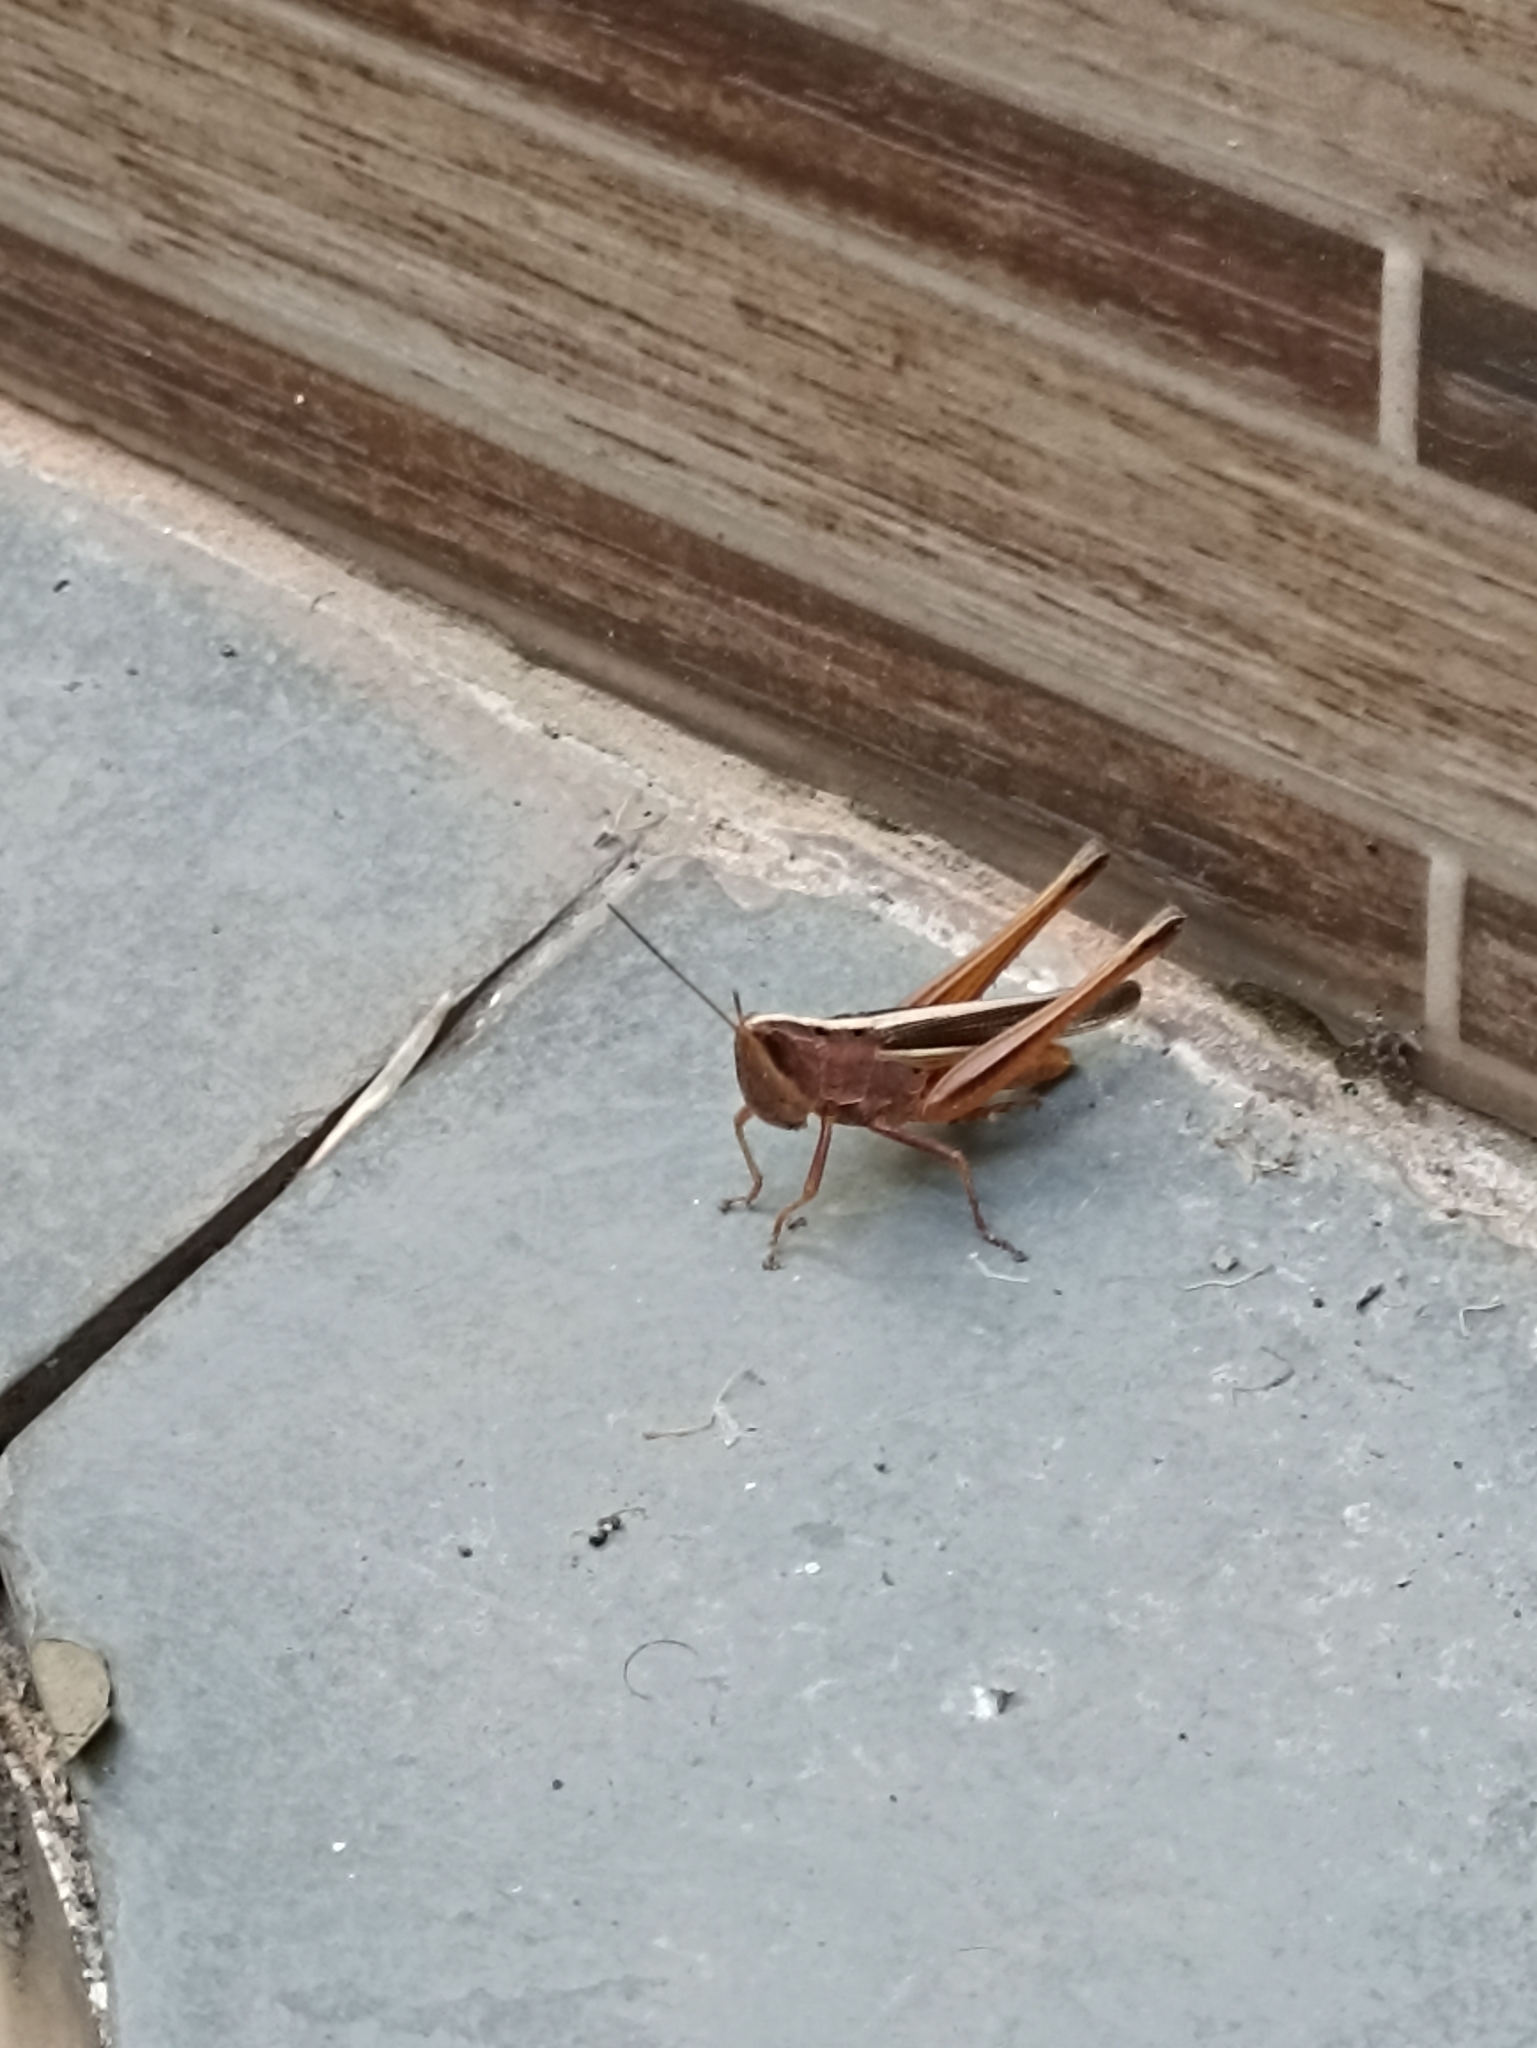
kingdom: Animalia
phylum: Arthropoda
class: Insecta
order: Orthoptera
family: Acrididae
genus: Staurorhectus
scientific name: Staurorhectus longicornis
